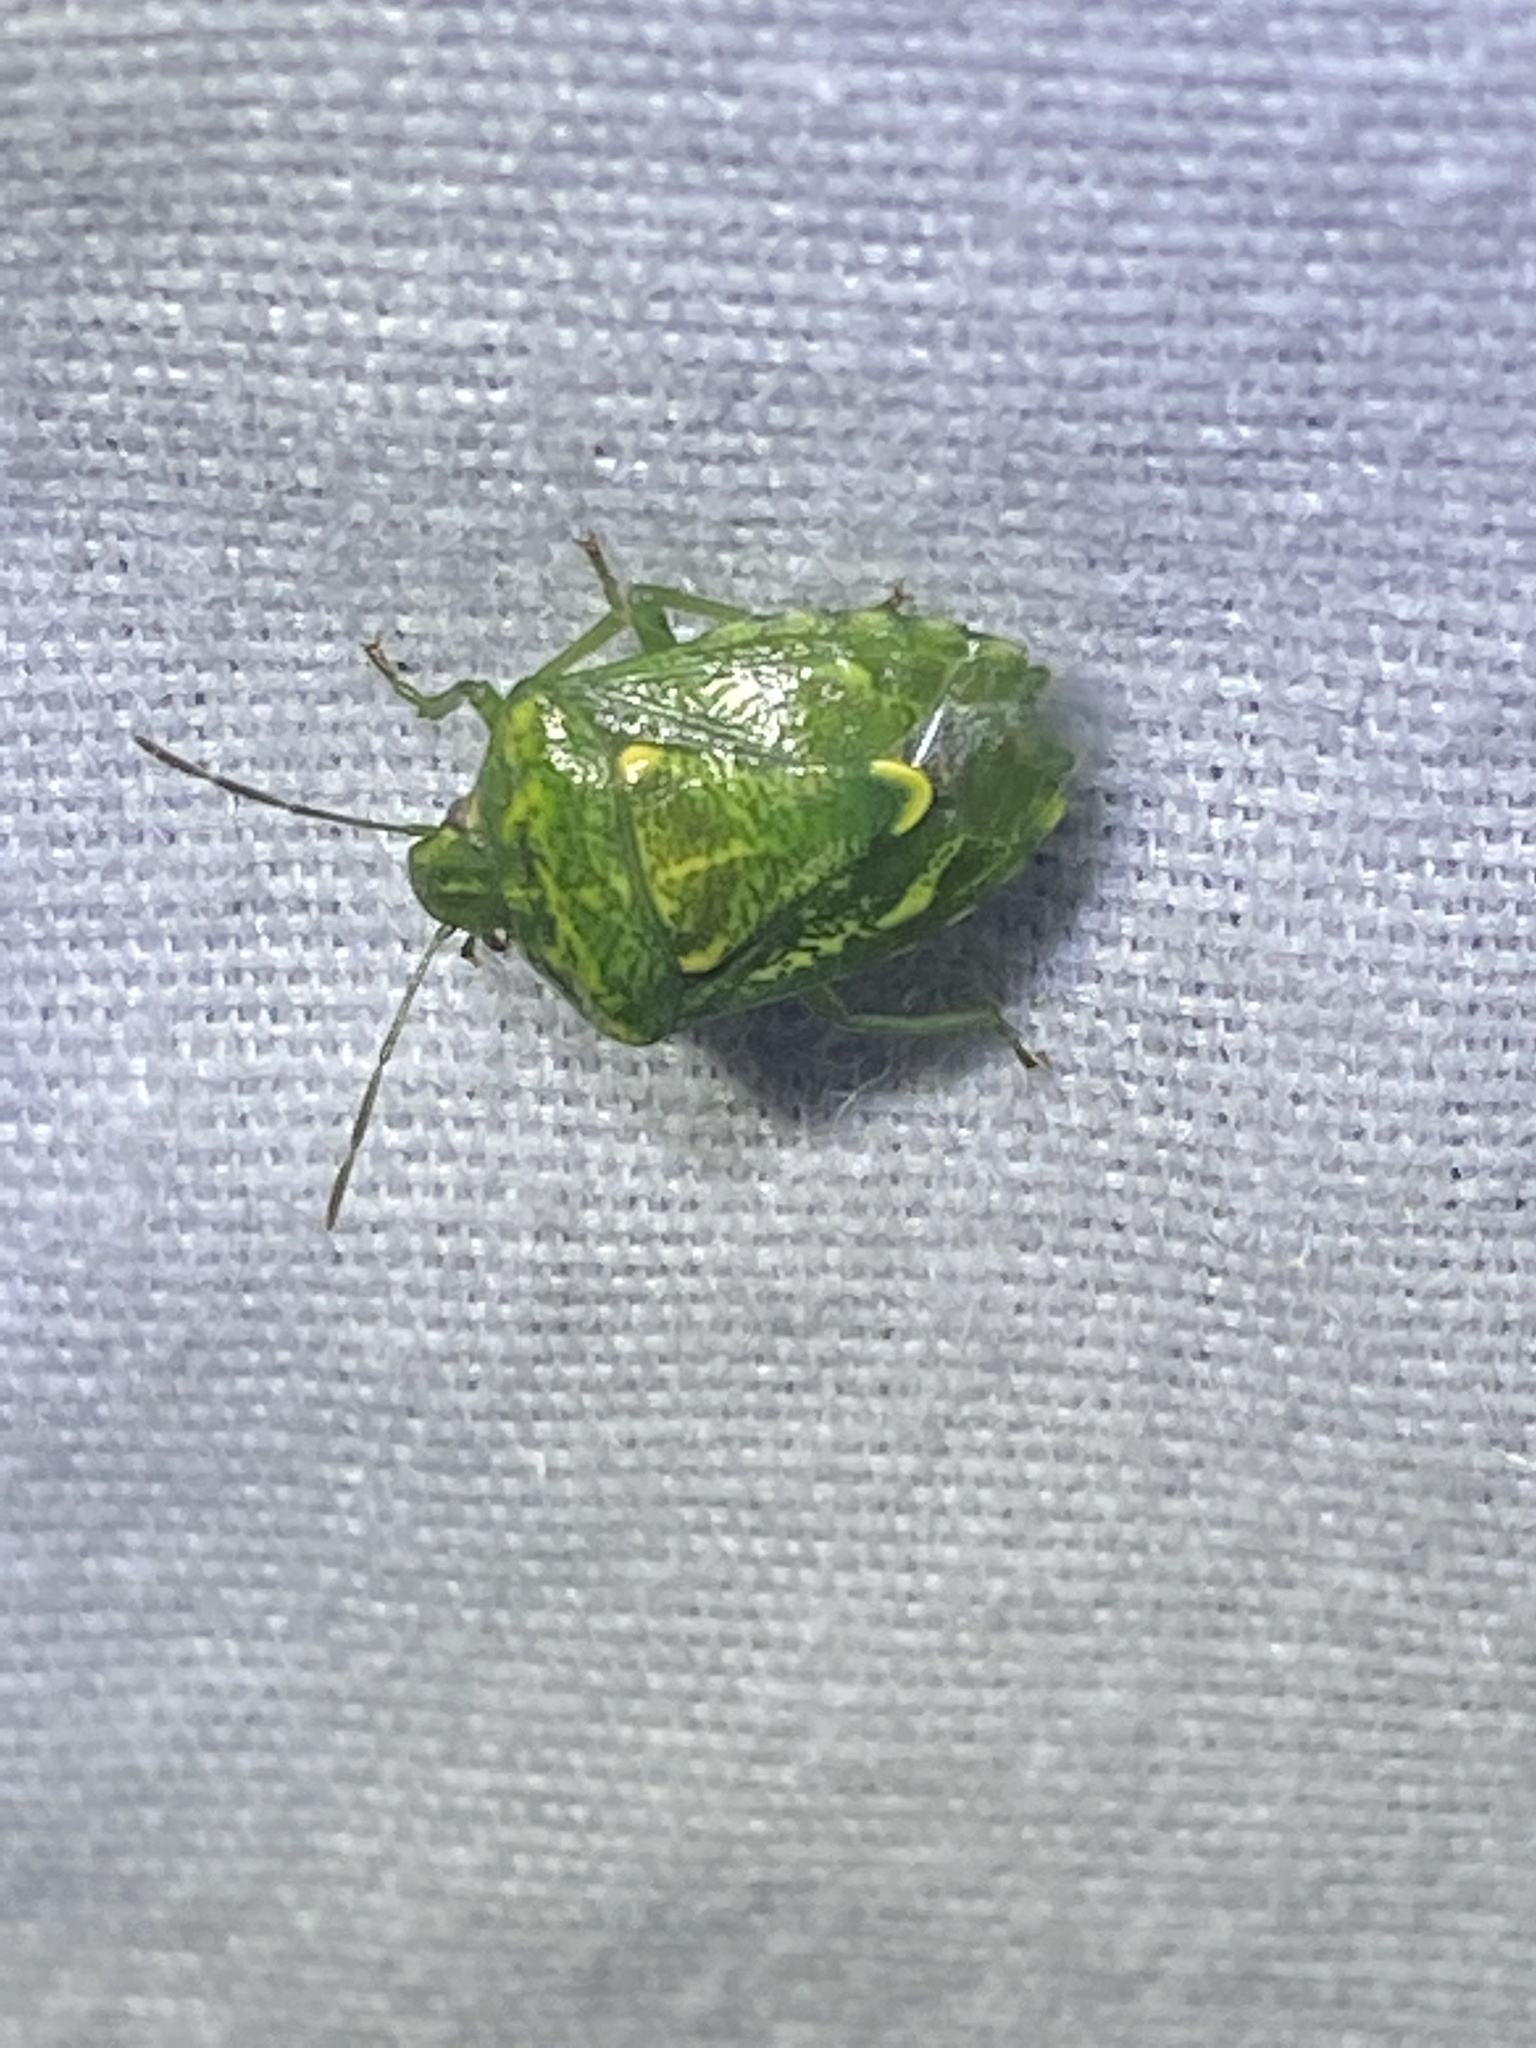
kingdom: Animalia
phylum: Arthropoda
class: Insecta
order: Hemiptera
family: Pentatomidae
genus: Banasa
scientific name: Banasa euchlora
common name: Cedar berry bug
